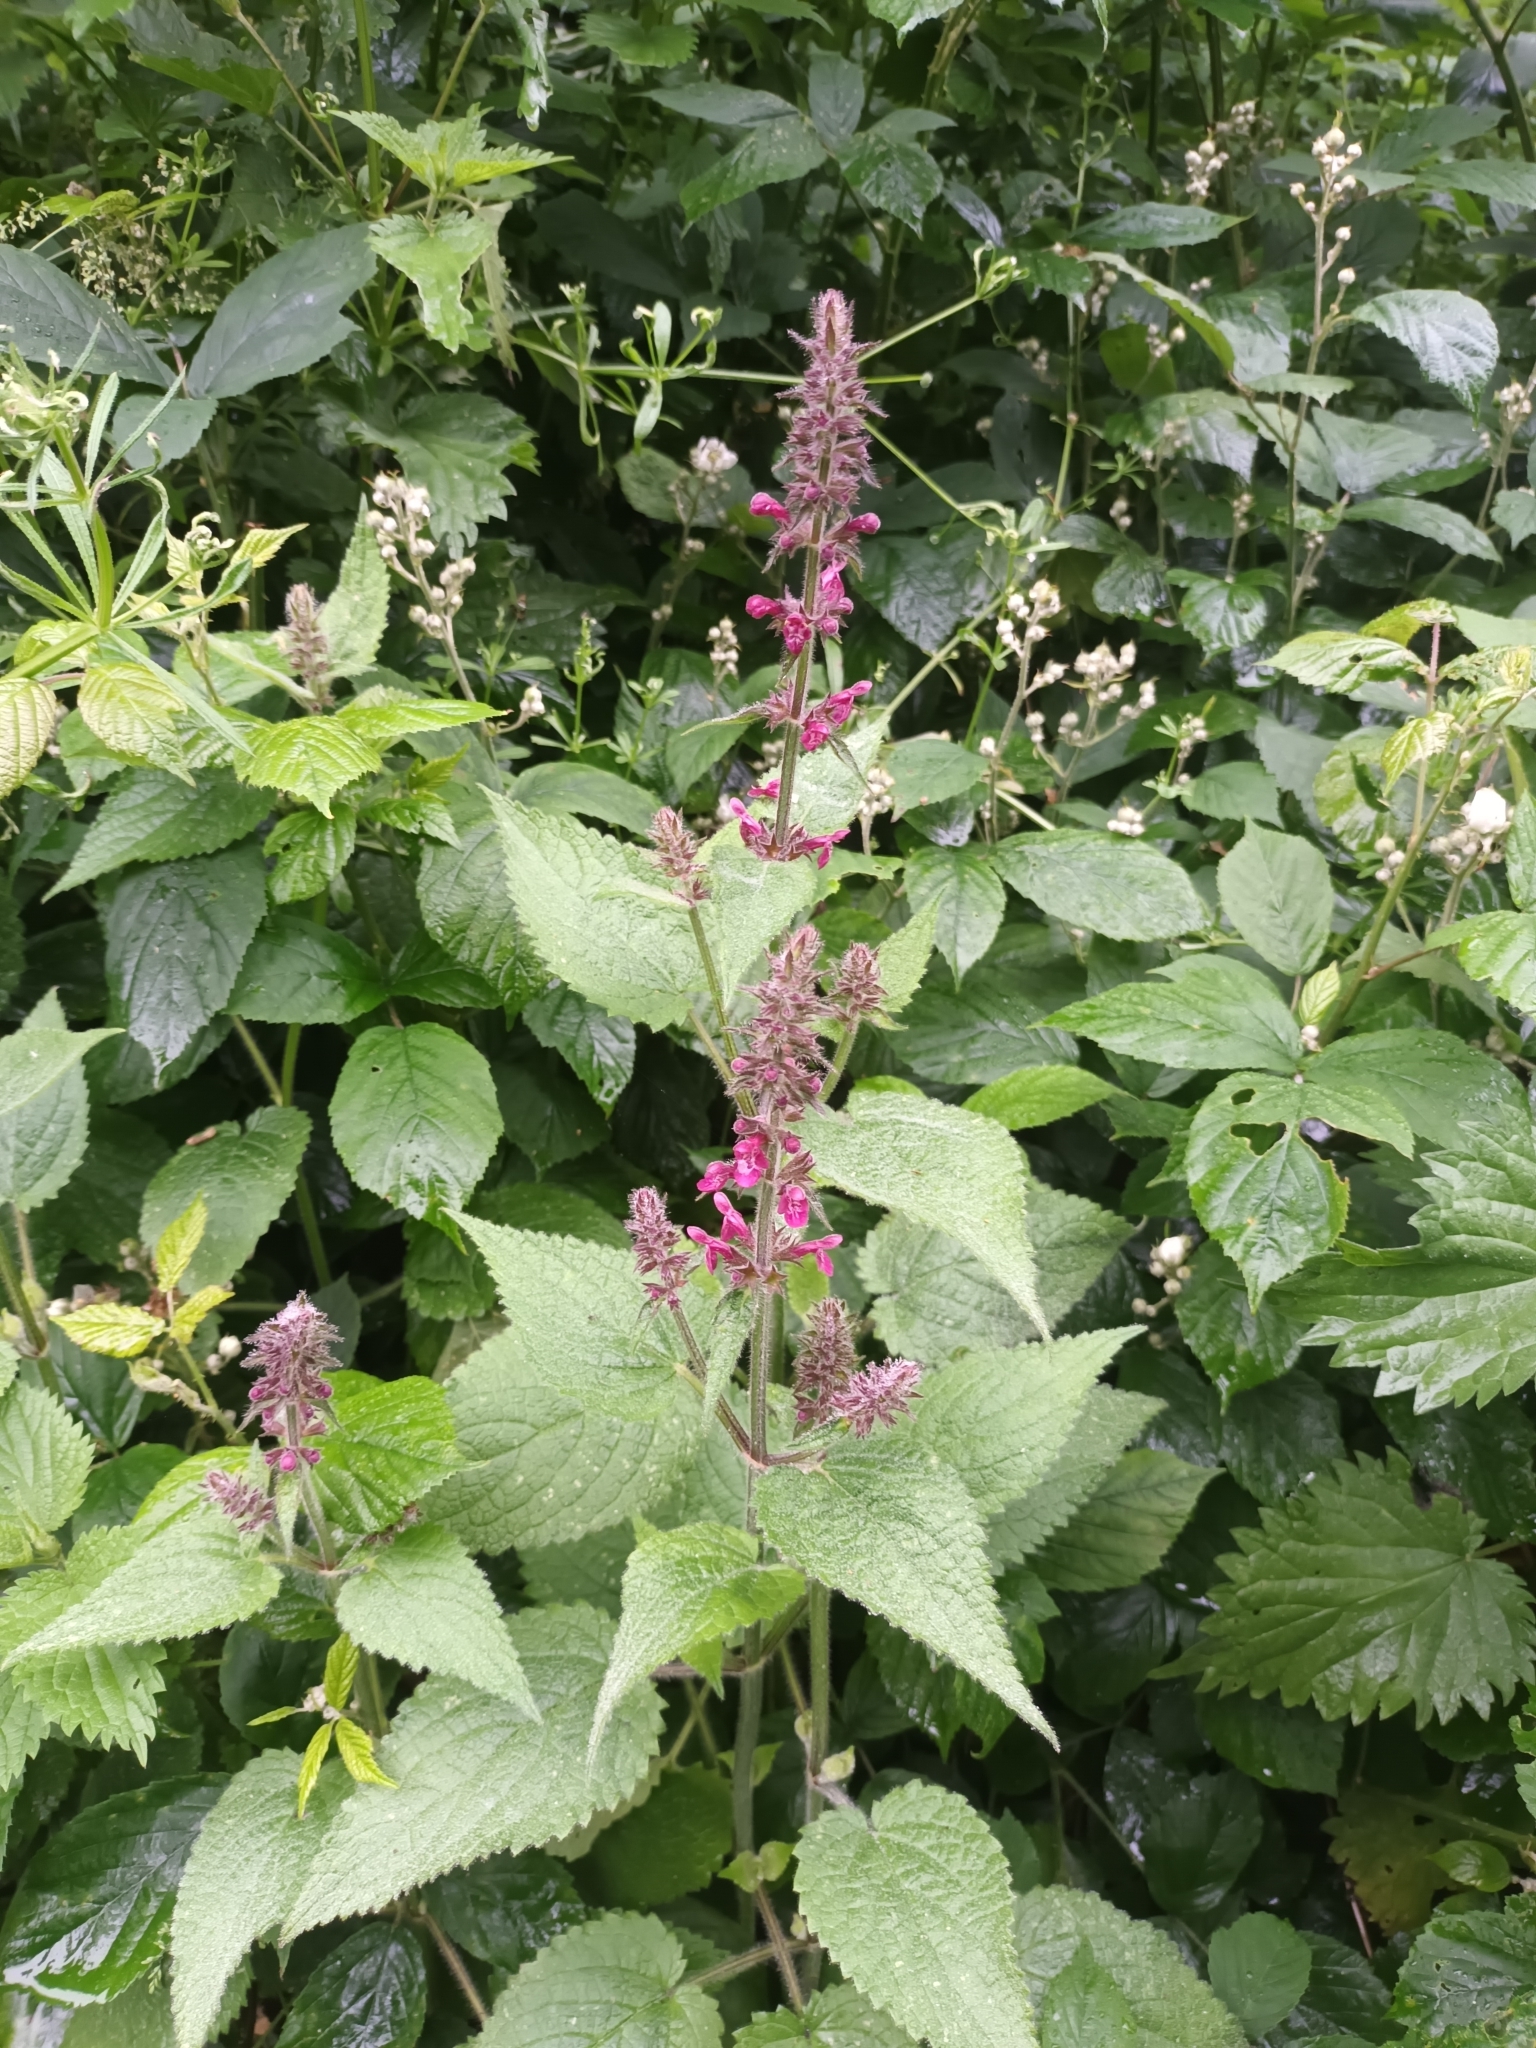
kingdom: Plantae
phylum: Tracheophyta
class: Magnoliopsida
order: Lamiales
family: Lamiaceae
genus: Stachys
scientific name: Stachys sylvatica
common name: Hedge woundwort
